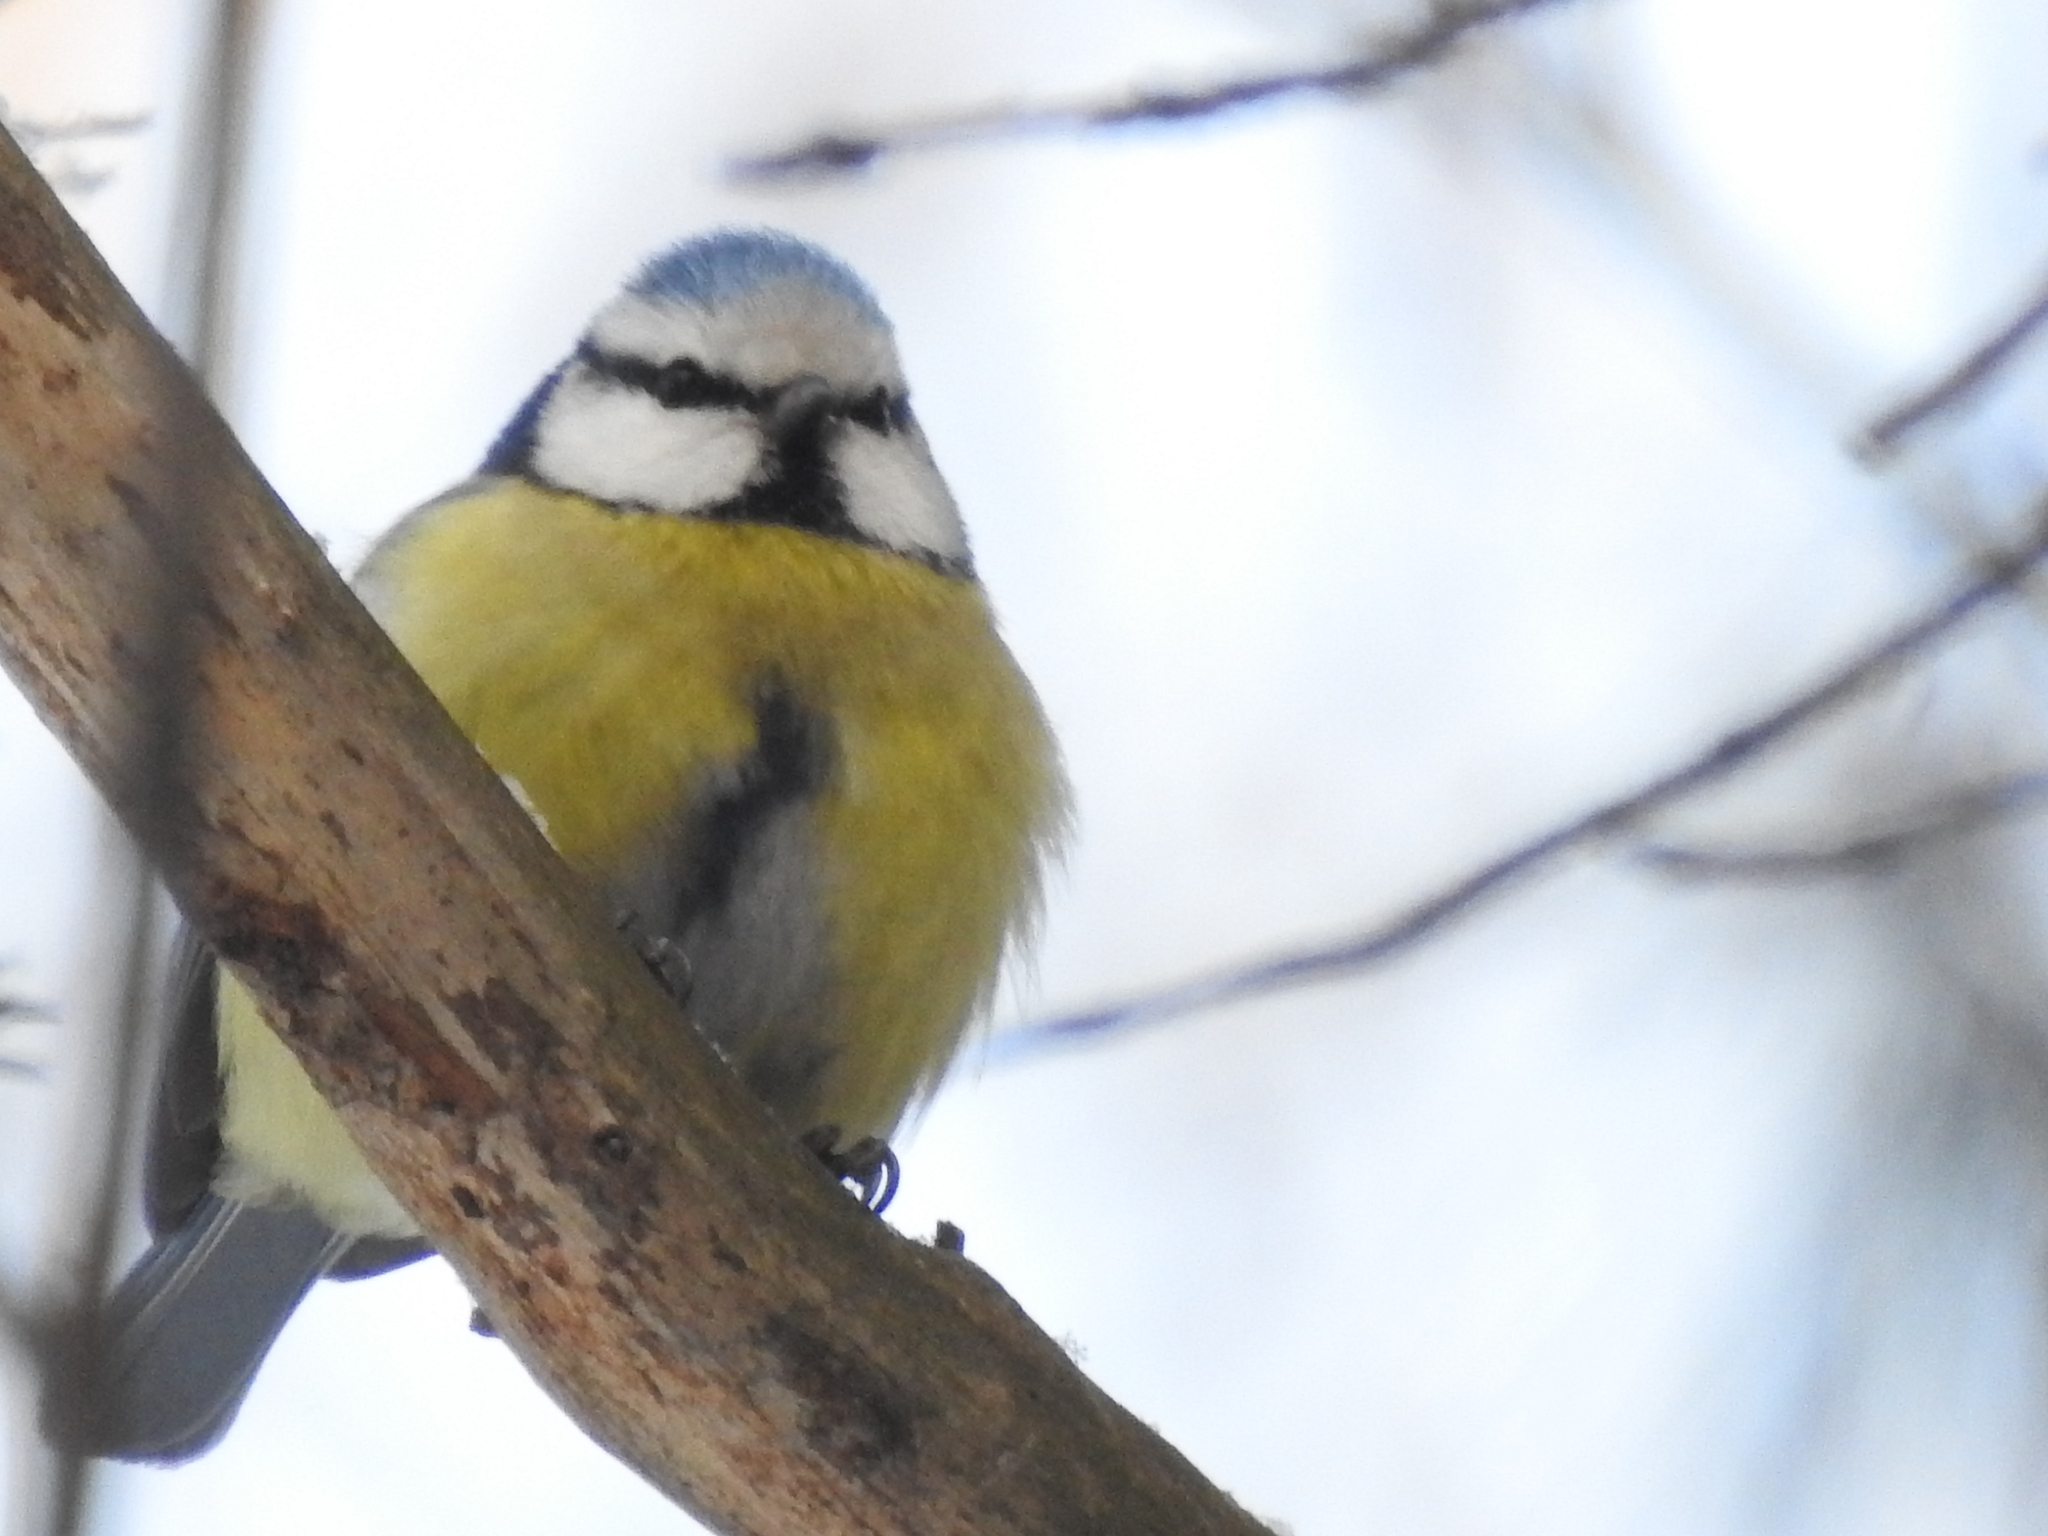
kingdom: Animalia
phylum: Chordata
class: Aves
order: Passeriformes
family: Paridae
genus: Cyanistes
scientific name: Cyanistes caeruleus
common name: Eurasian blue tit
